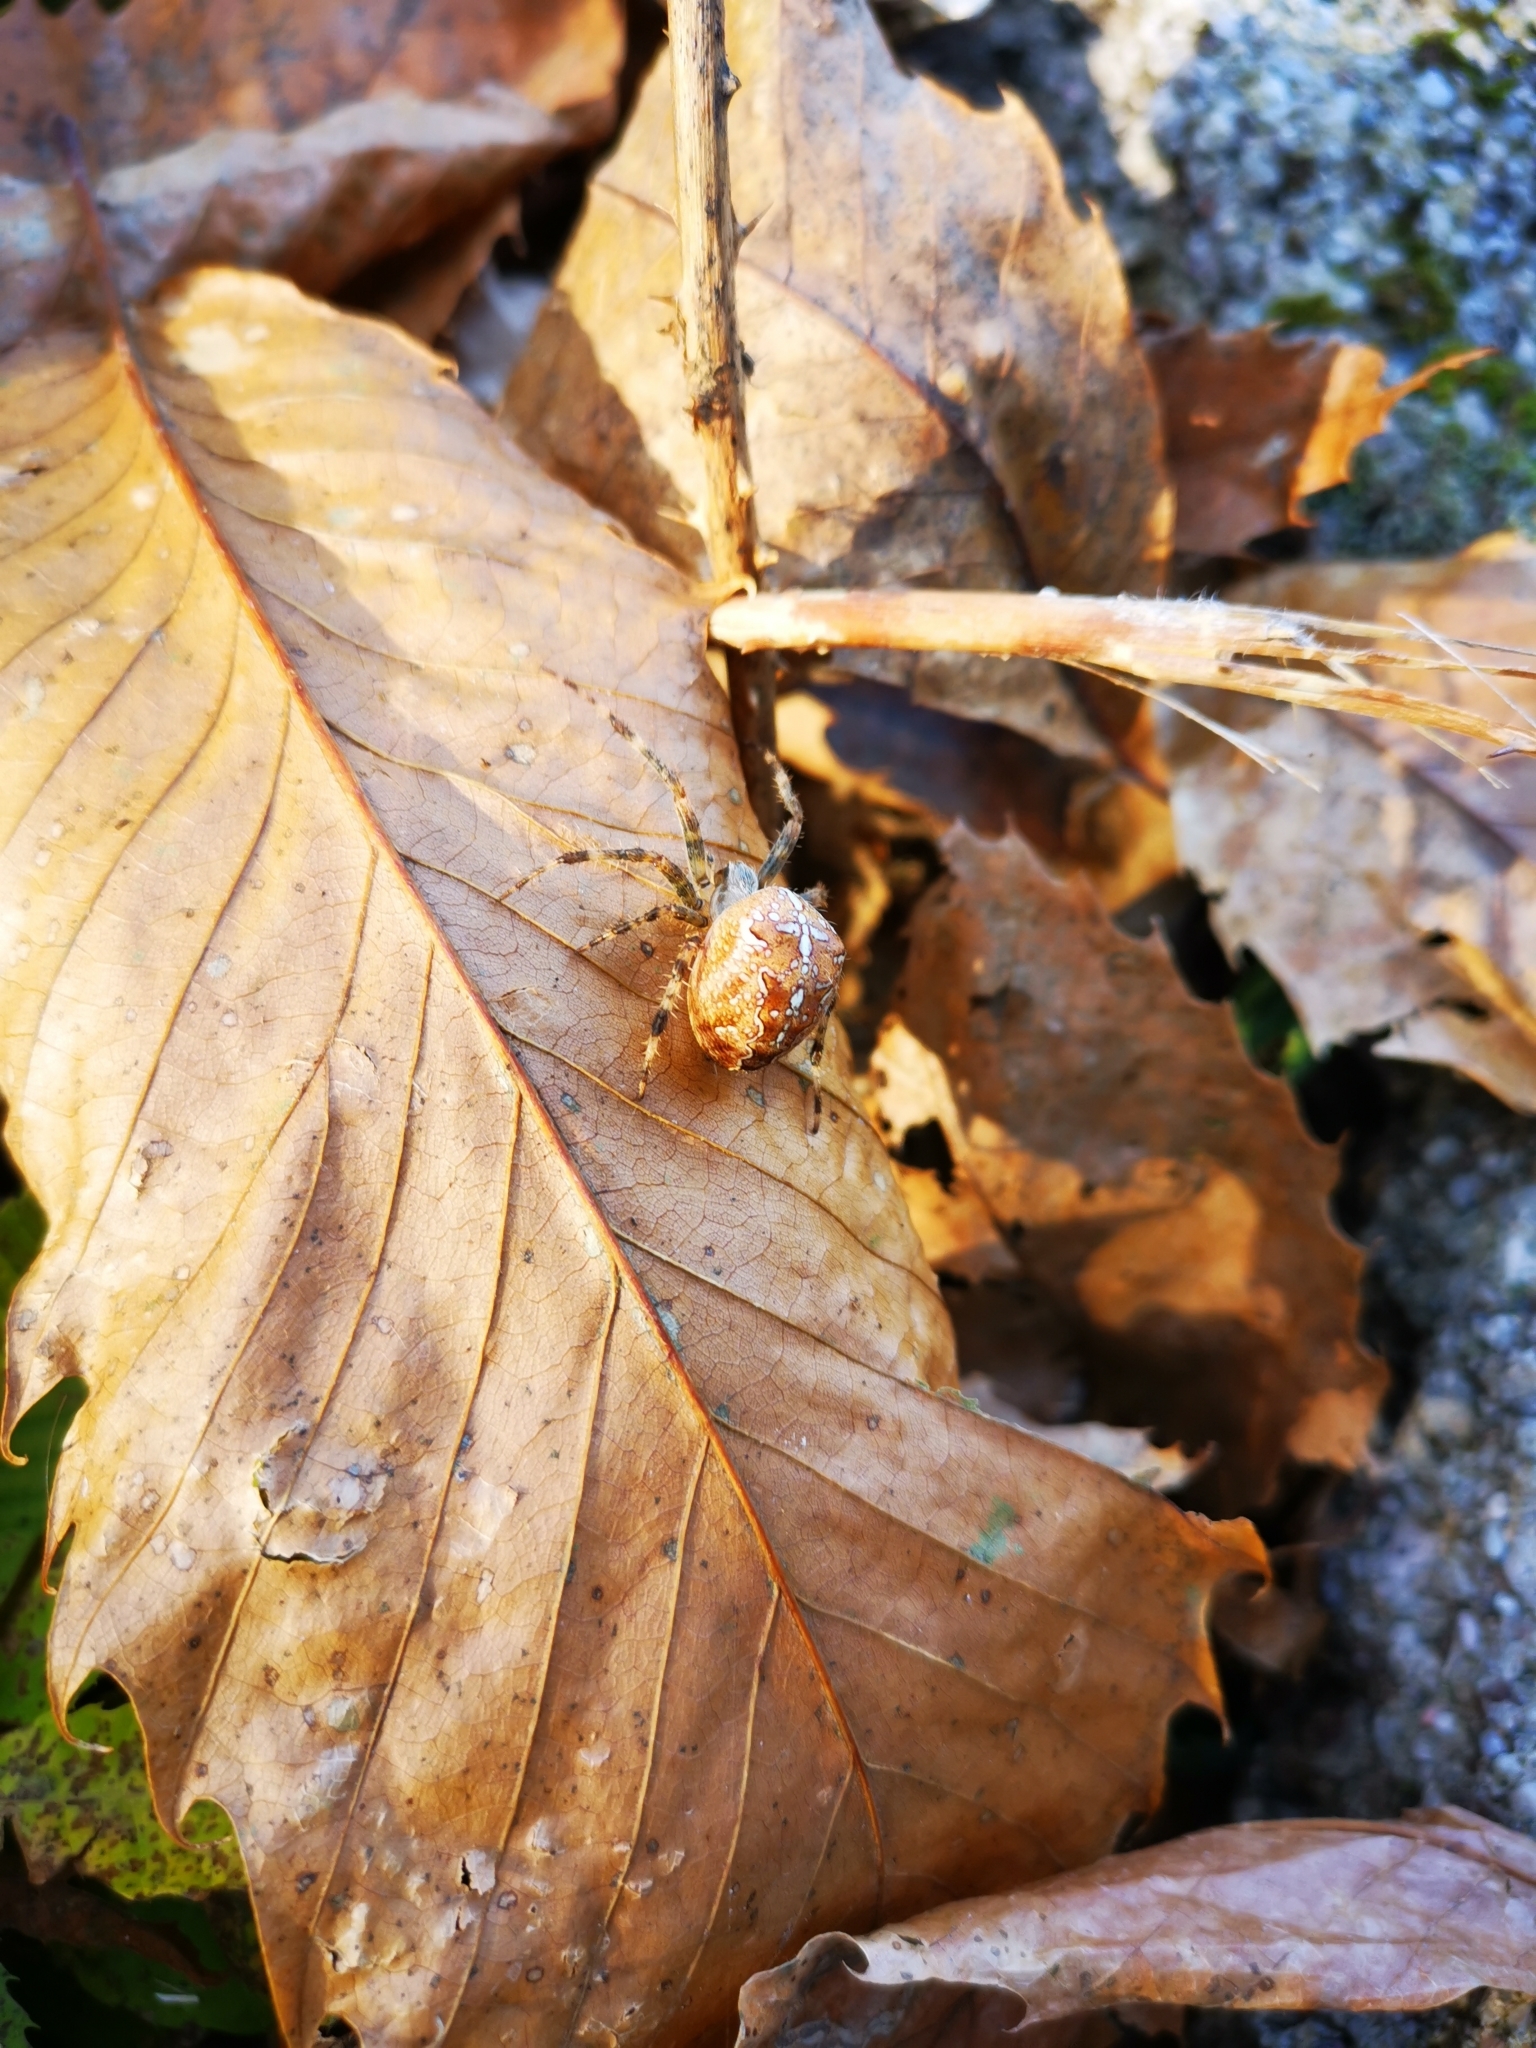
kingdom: Animalia
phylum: Arthropoda
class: Arachnida
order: Araneae
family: Araneidae
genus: Araneus
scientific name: Araneus diadematus
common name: Cross orbweaver
